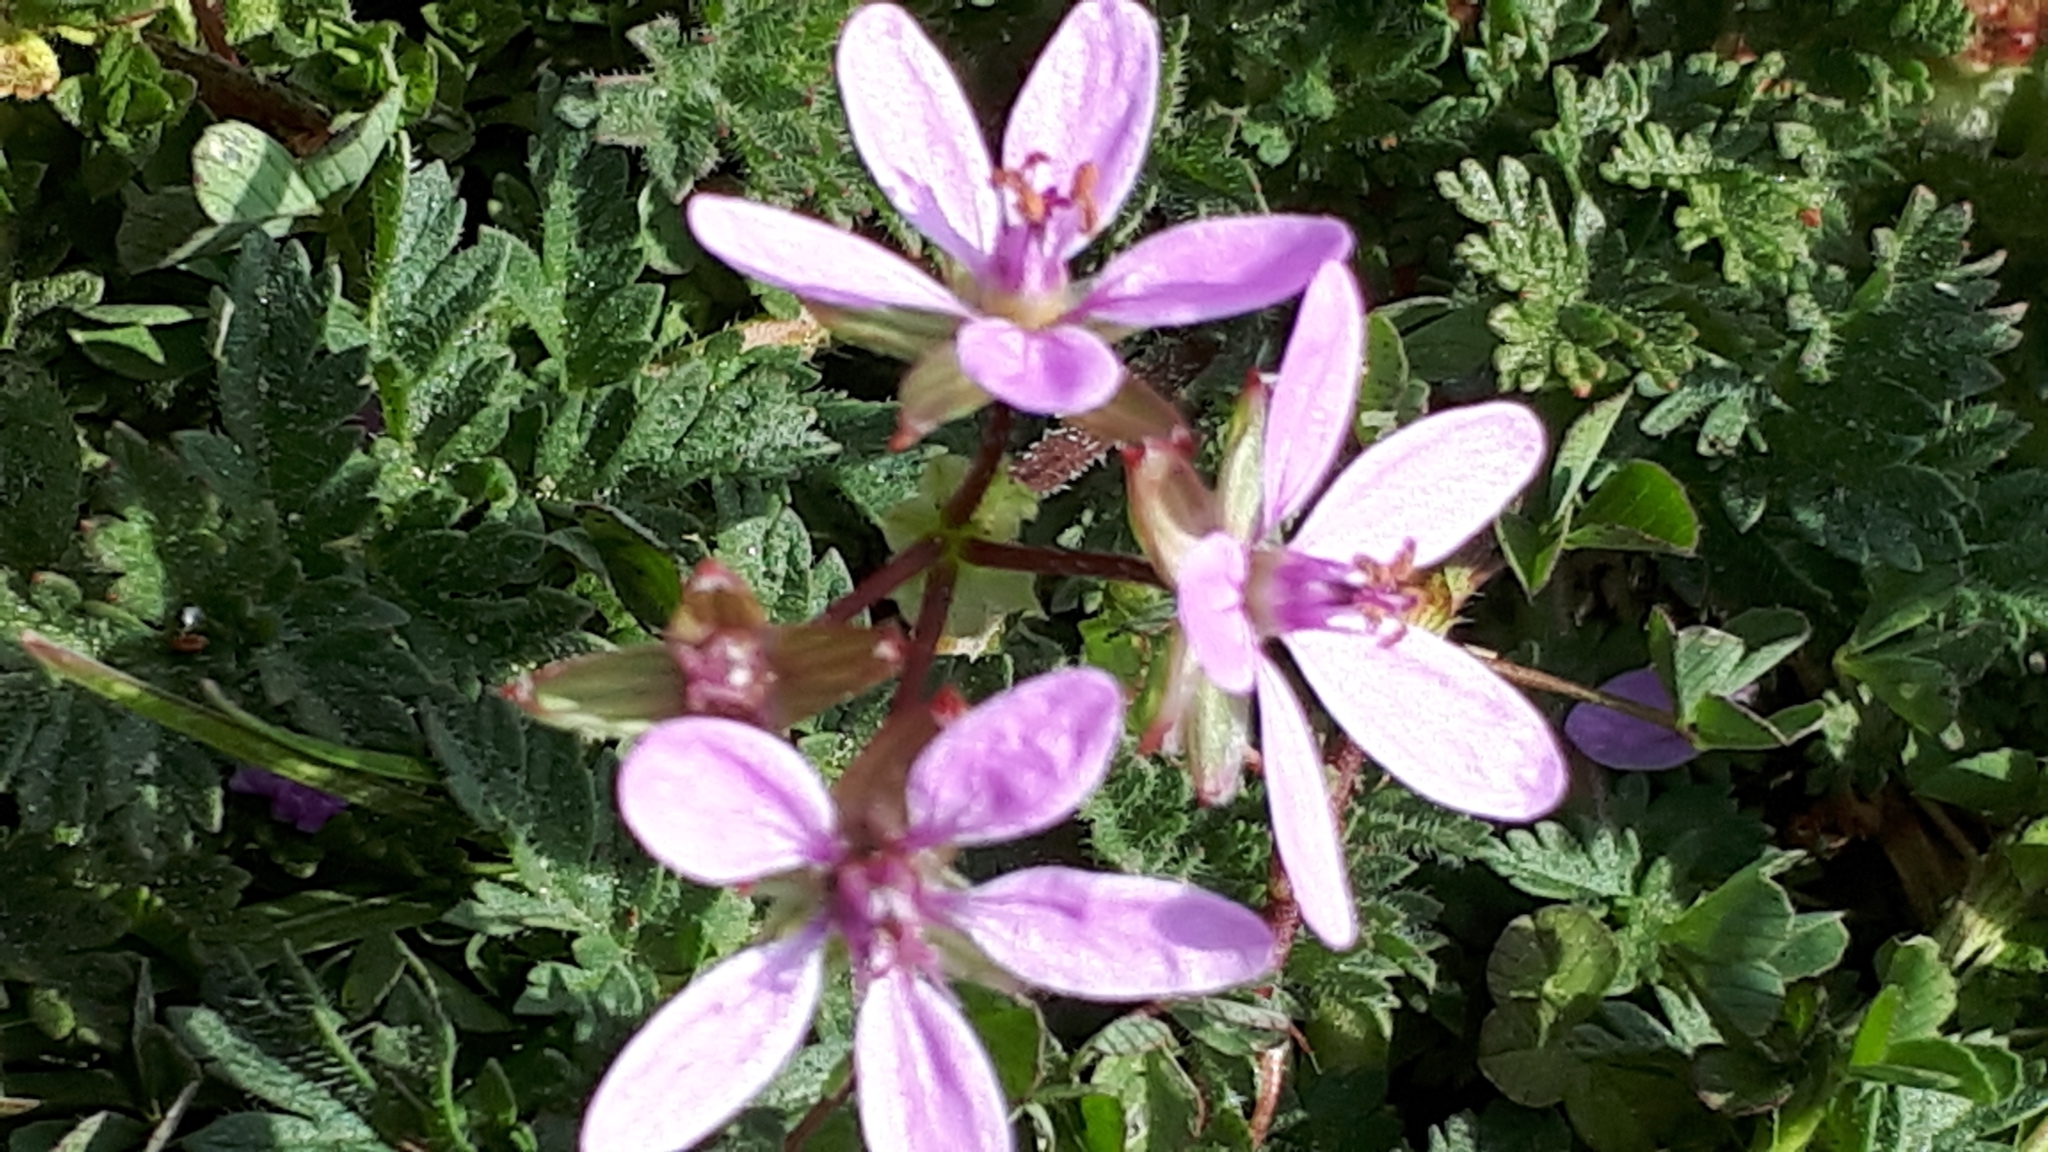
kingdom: Plantae
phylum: Tracheophyta
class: Magnoliopsida
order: Geraniales
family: Geraniaceae
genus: Erodium
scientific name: Erodium cicutarium
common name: Common stork's-bill
